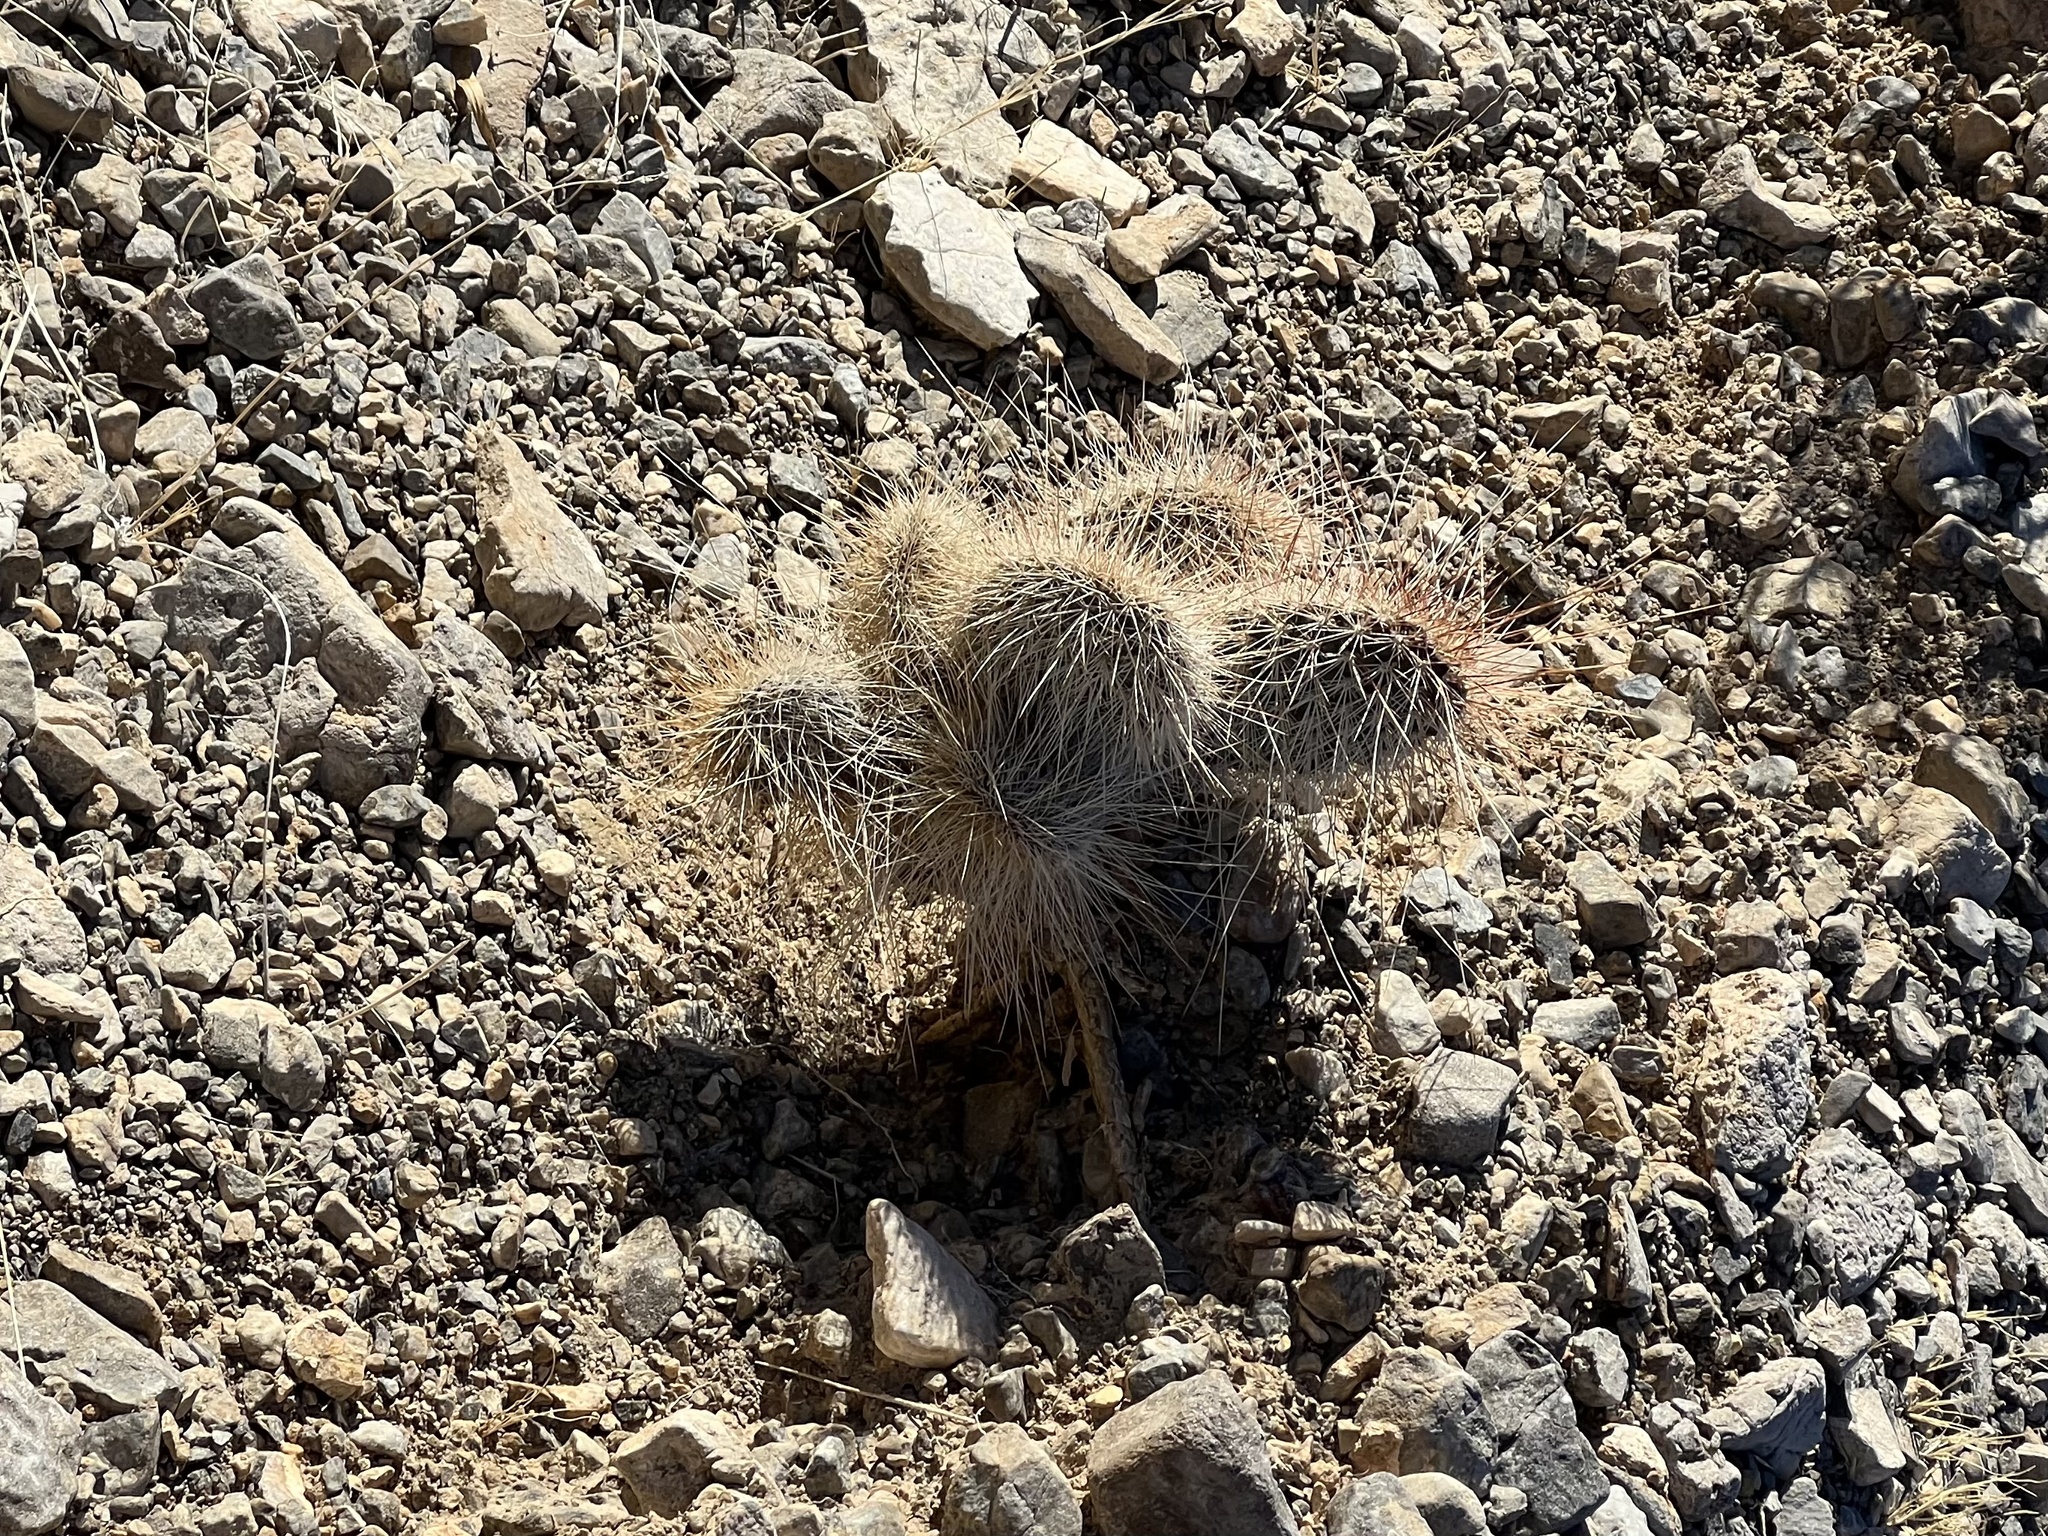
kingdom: Plantae
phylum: Tracheophyta
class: Magnoliopsida
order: Caryophyllales
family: Cactaceae
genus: Opuntia
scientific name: Opuntia polyacantha
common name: Plains prickly-pear
